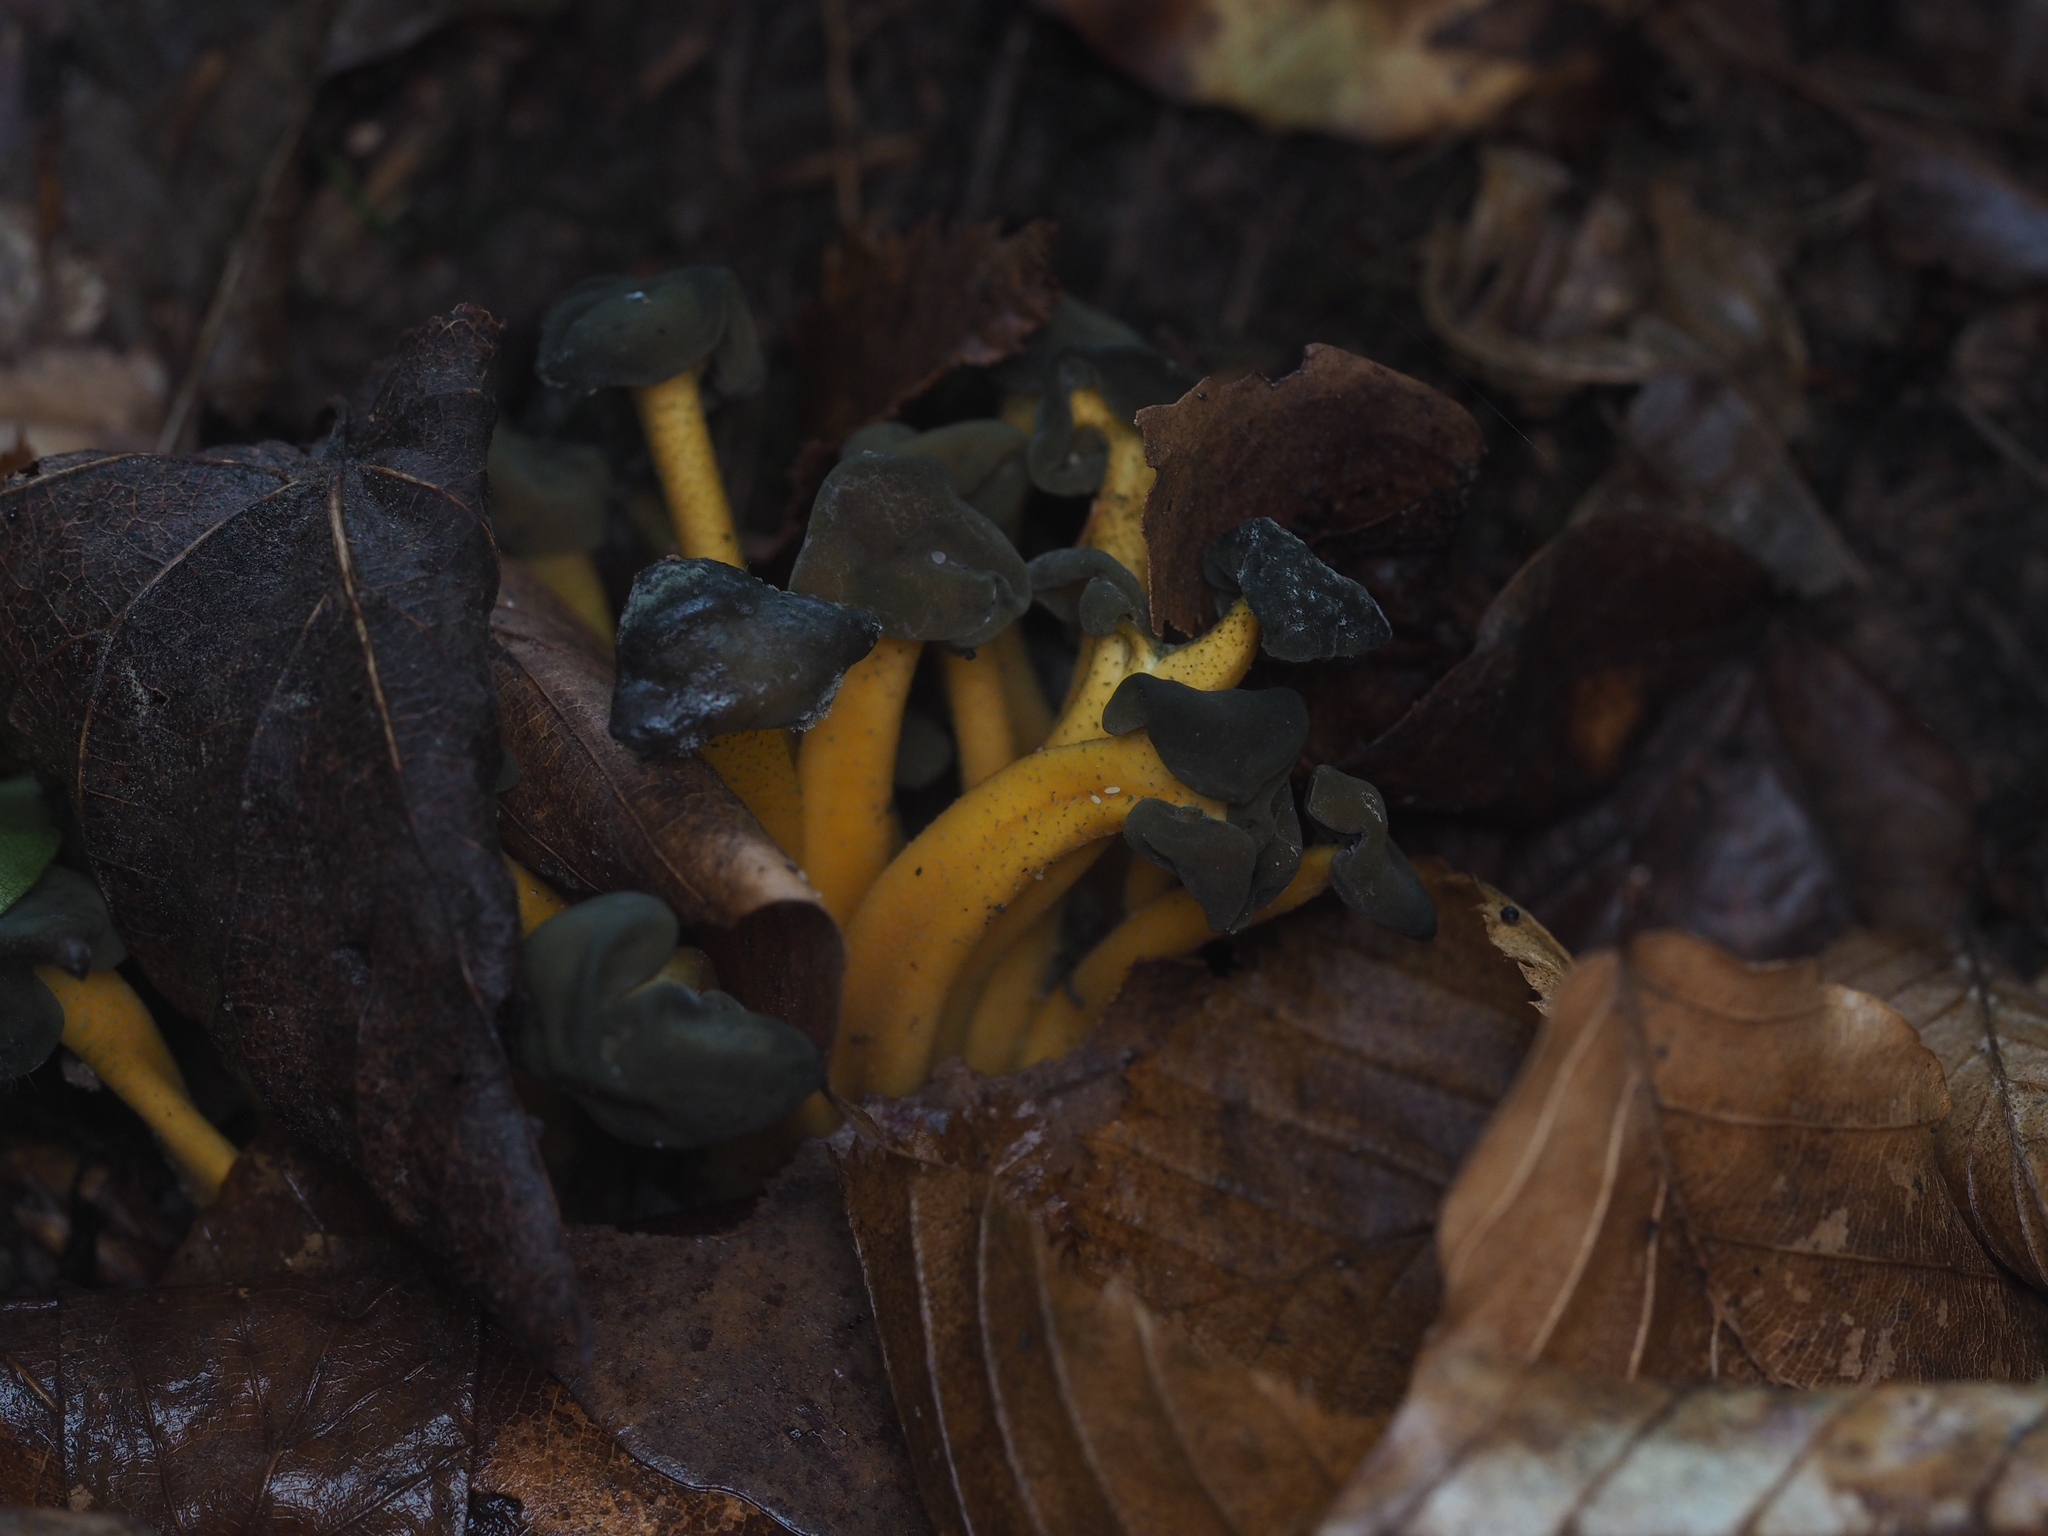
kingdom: Fungi
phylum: Ascomycota
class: Leotiomycetes
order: Leotiales
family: Leotiaceae
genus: Leotia
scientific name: Leotia lubrica
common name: Jellybaby
